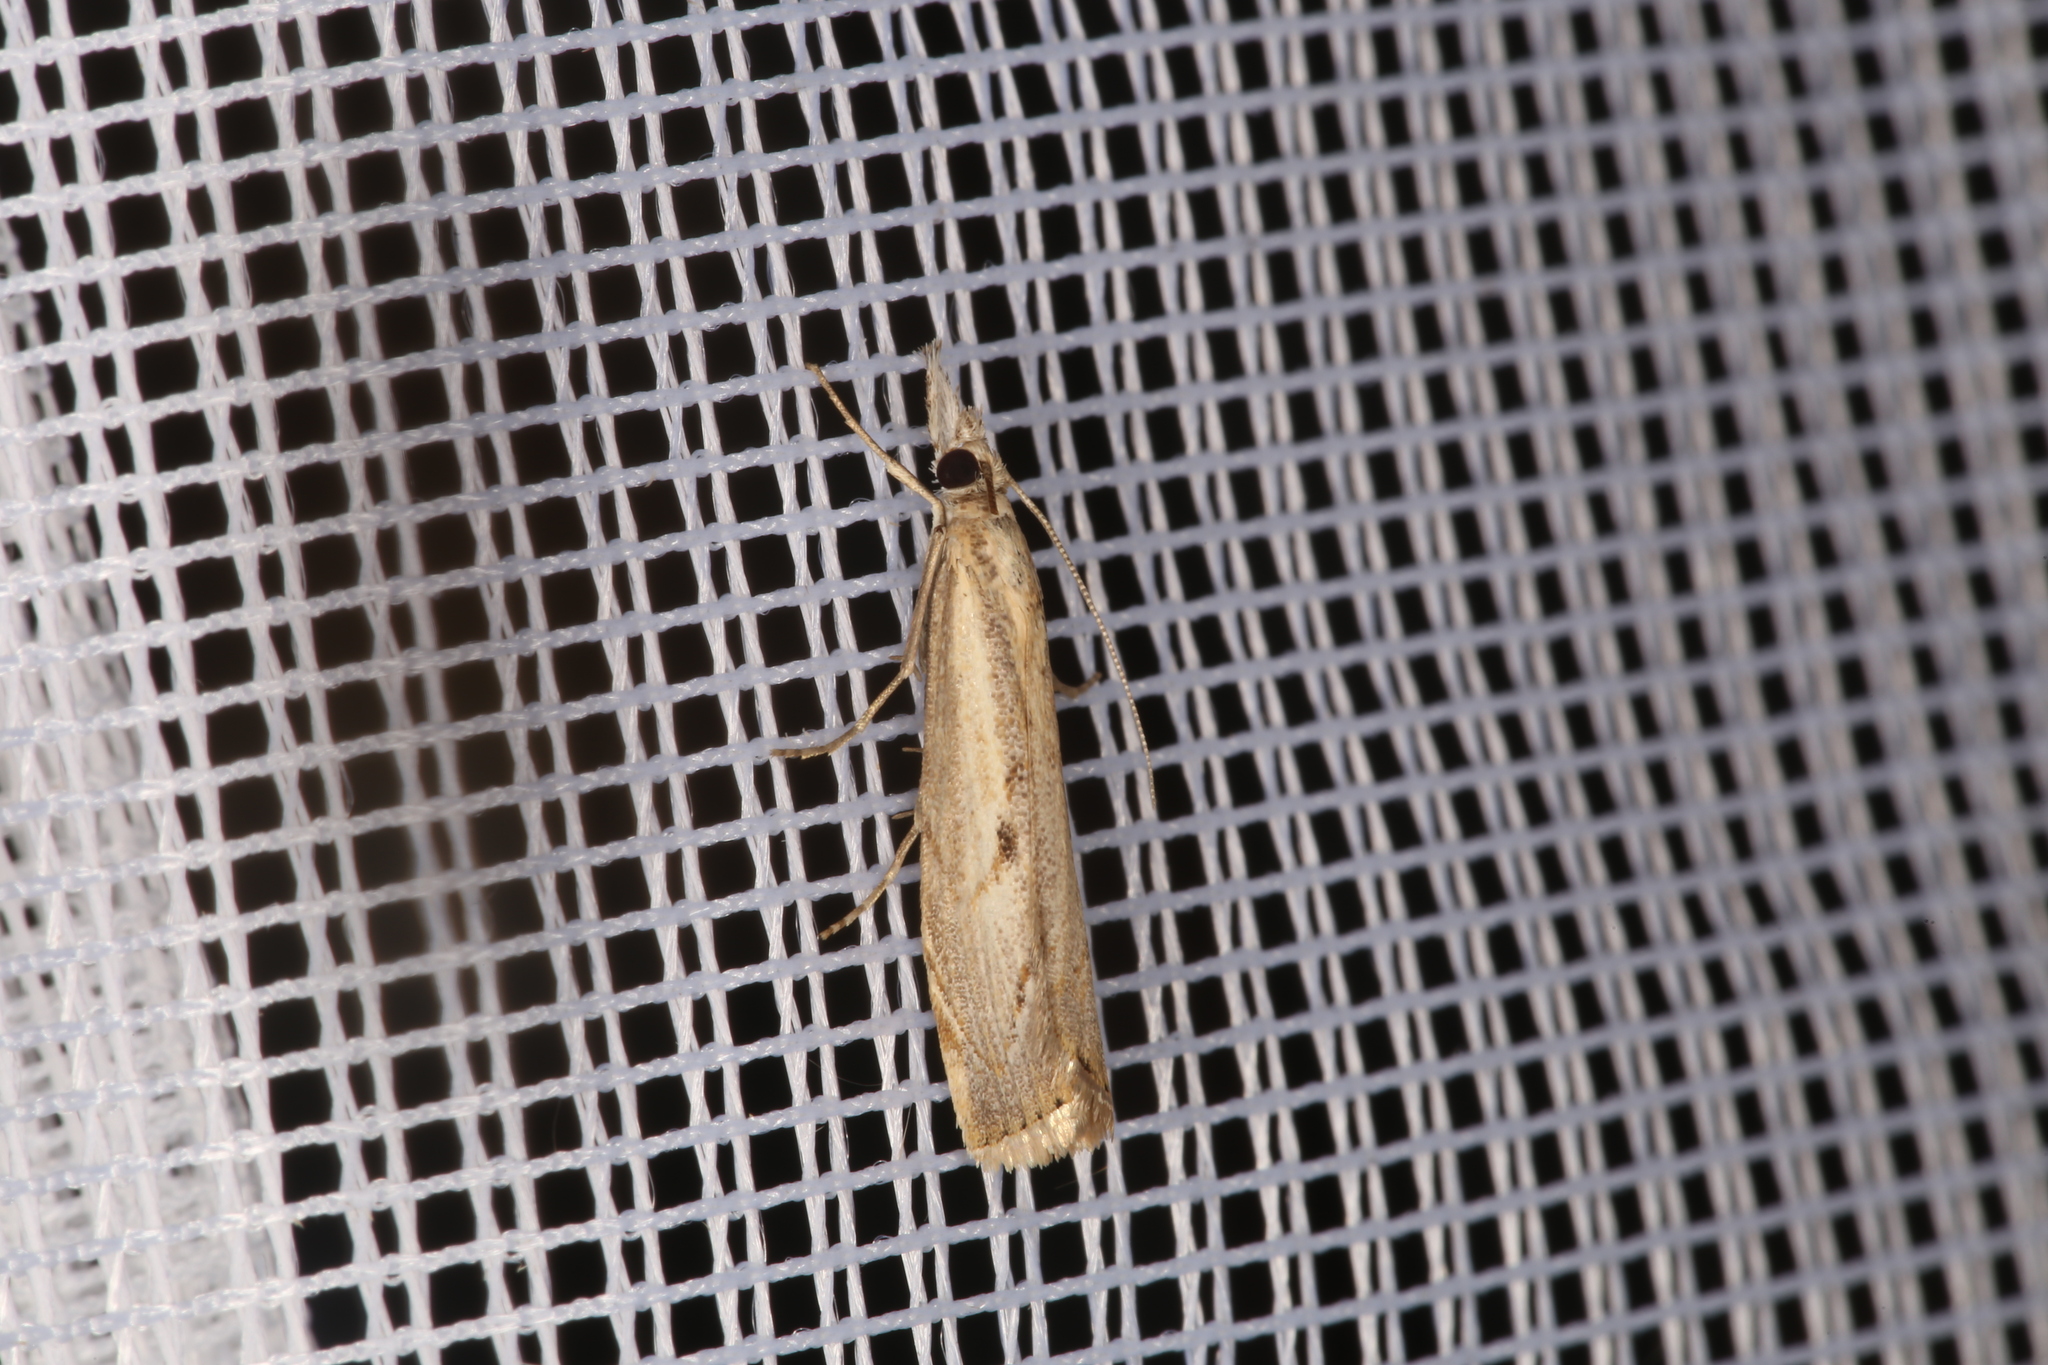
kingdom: Animalia
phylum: Arthropoda
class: Insecta
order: Lepidoptera
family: Crambidae
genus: Agriphila
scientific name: Agriphila geniculea
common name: Elbow-stripe grass-veneer
